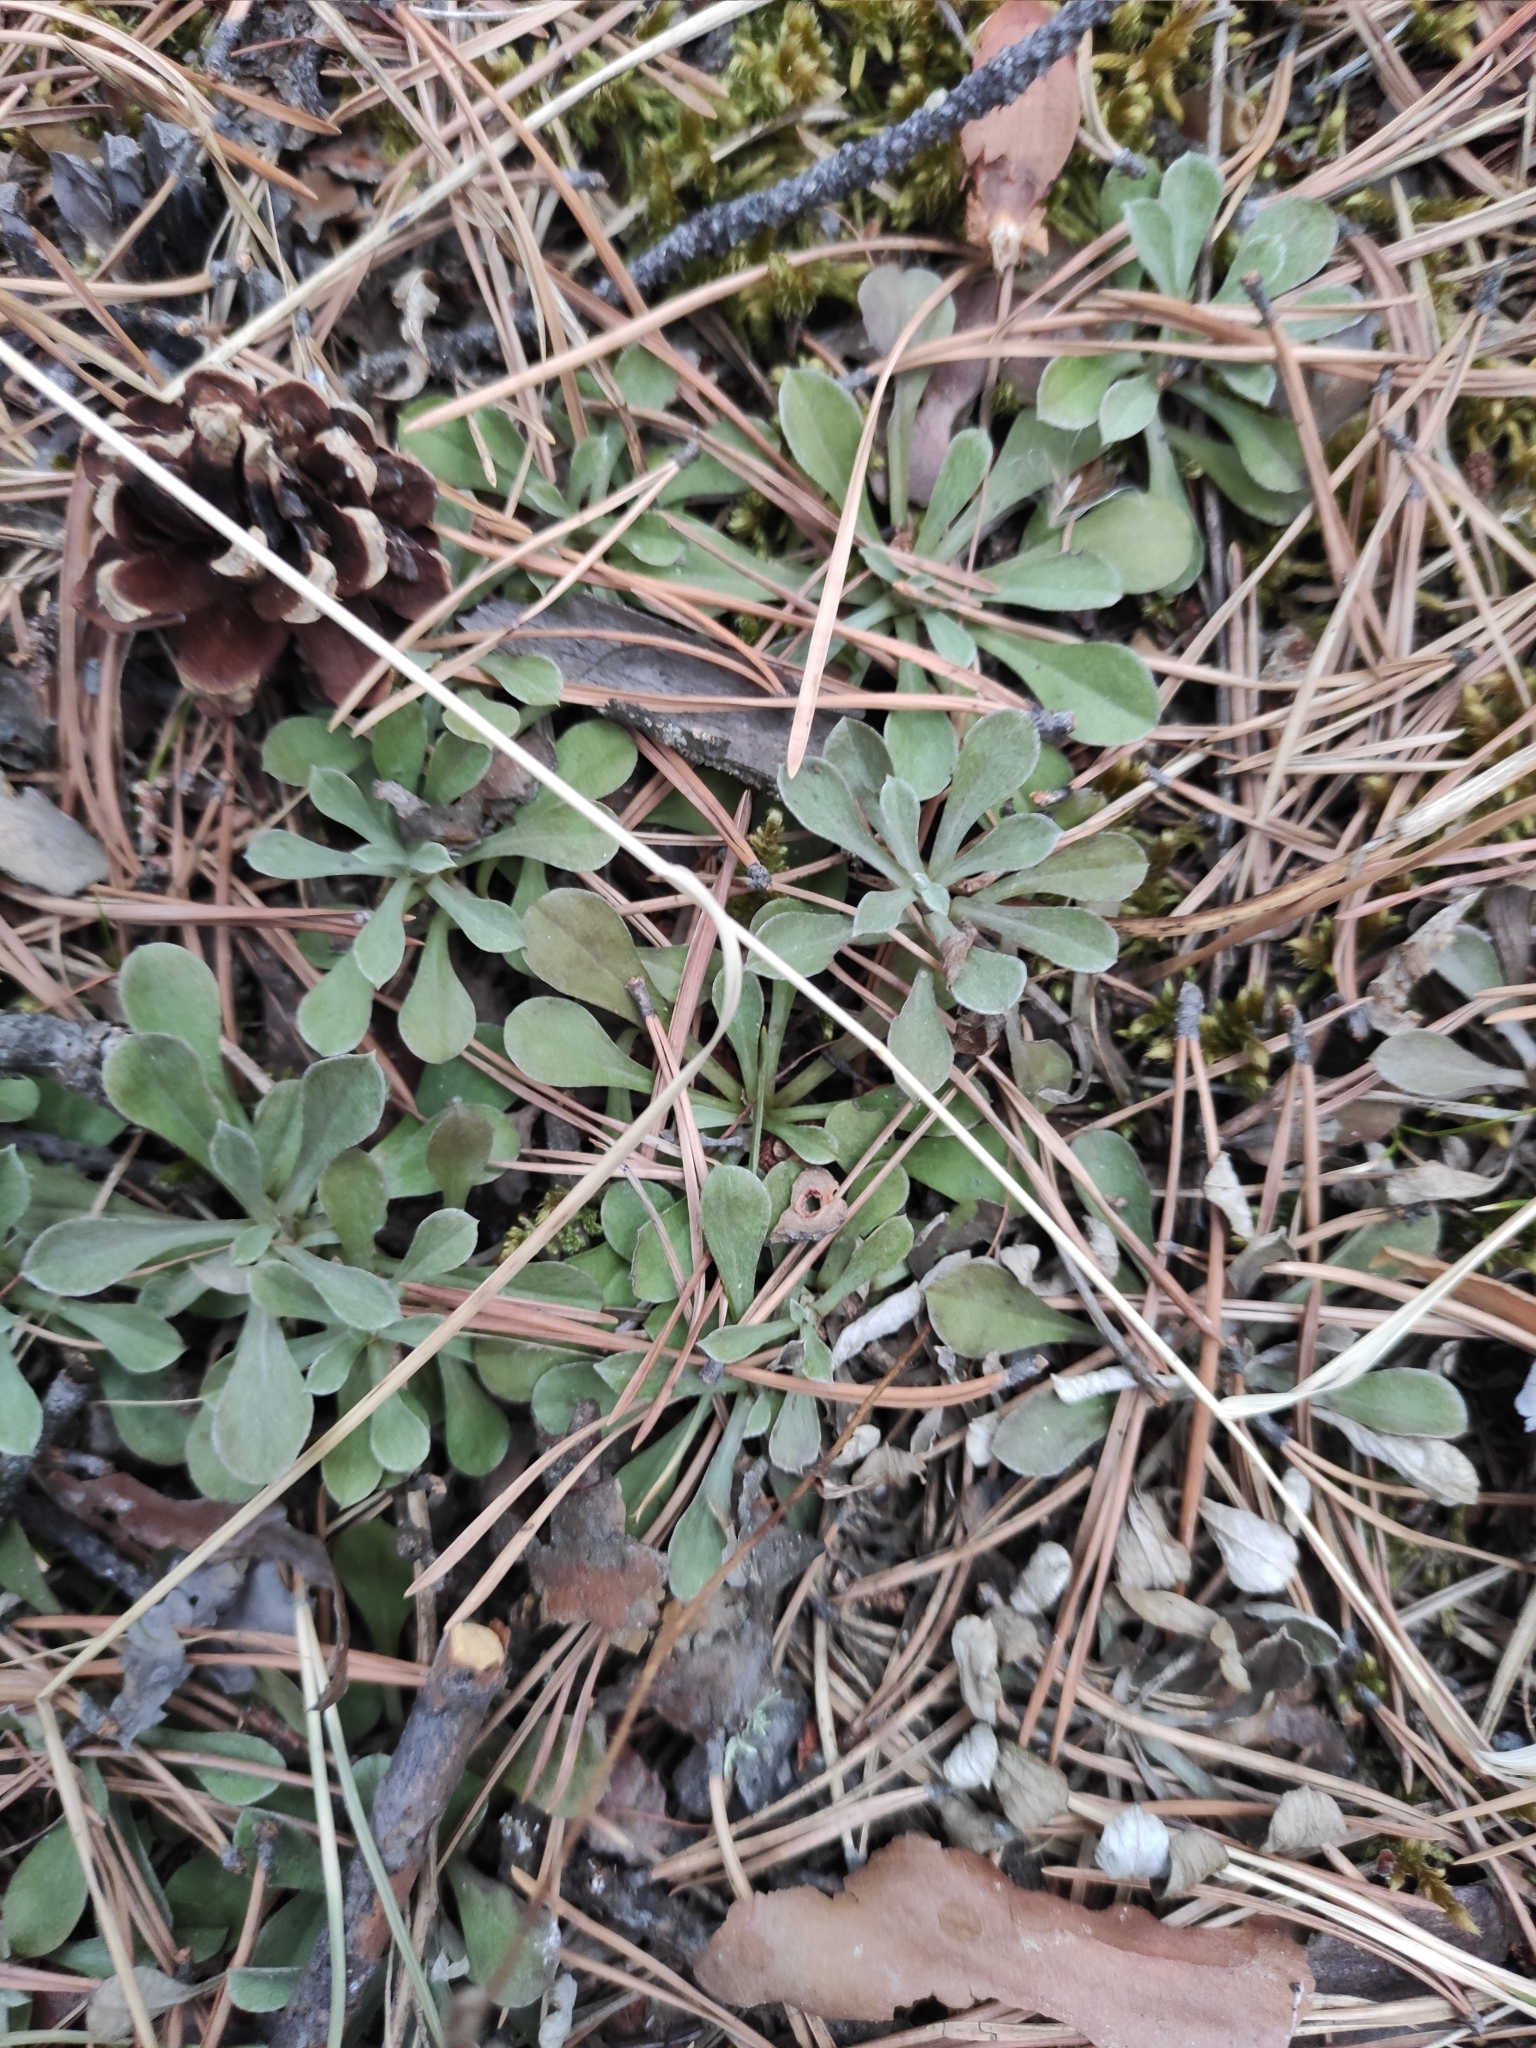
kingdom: Plantae
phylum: Tracheophyta
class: Magnoliopsida
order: Asterales
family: Asteraceae
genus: Antennaria
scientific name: Antennaria dioica
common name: Mountain everlasting
